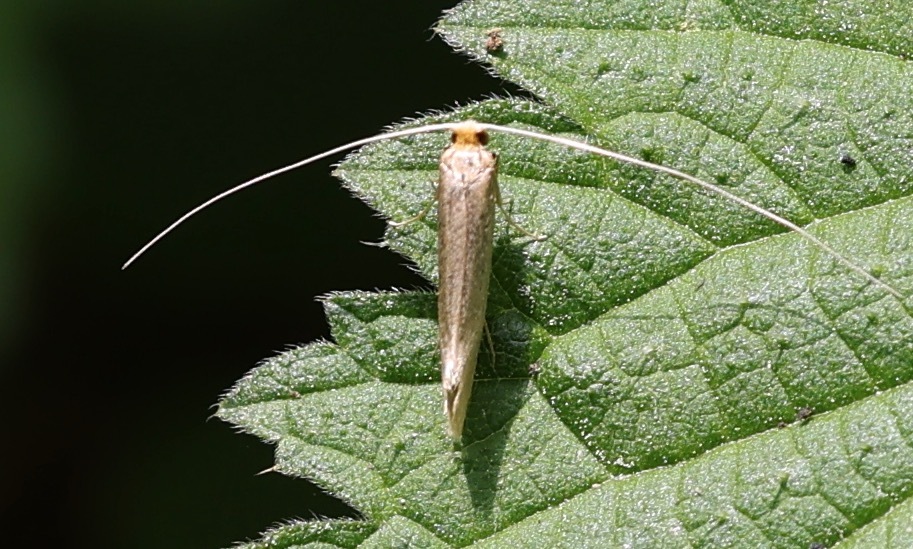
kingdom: Animalia
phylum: Arthropoda
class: Insecta
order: Lepidoptera
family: Adelidae
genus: Nematopogon
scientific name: Nematopogon swammerdamella
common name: Large long-horn
